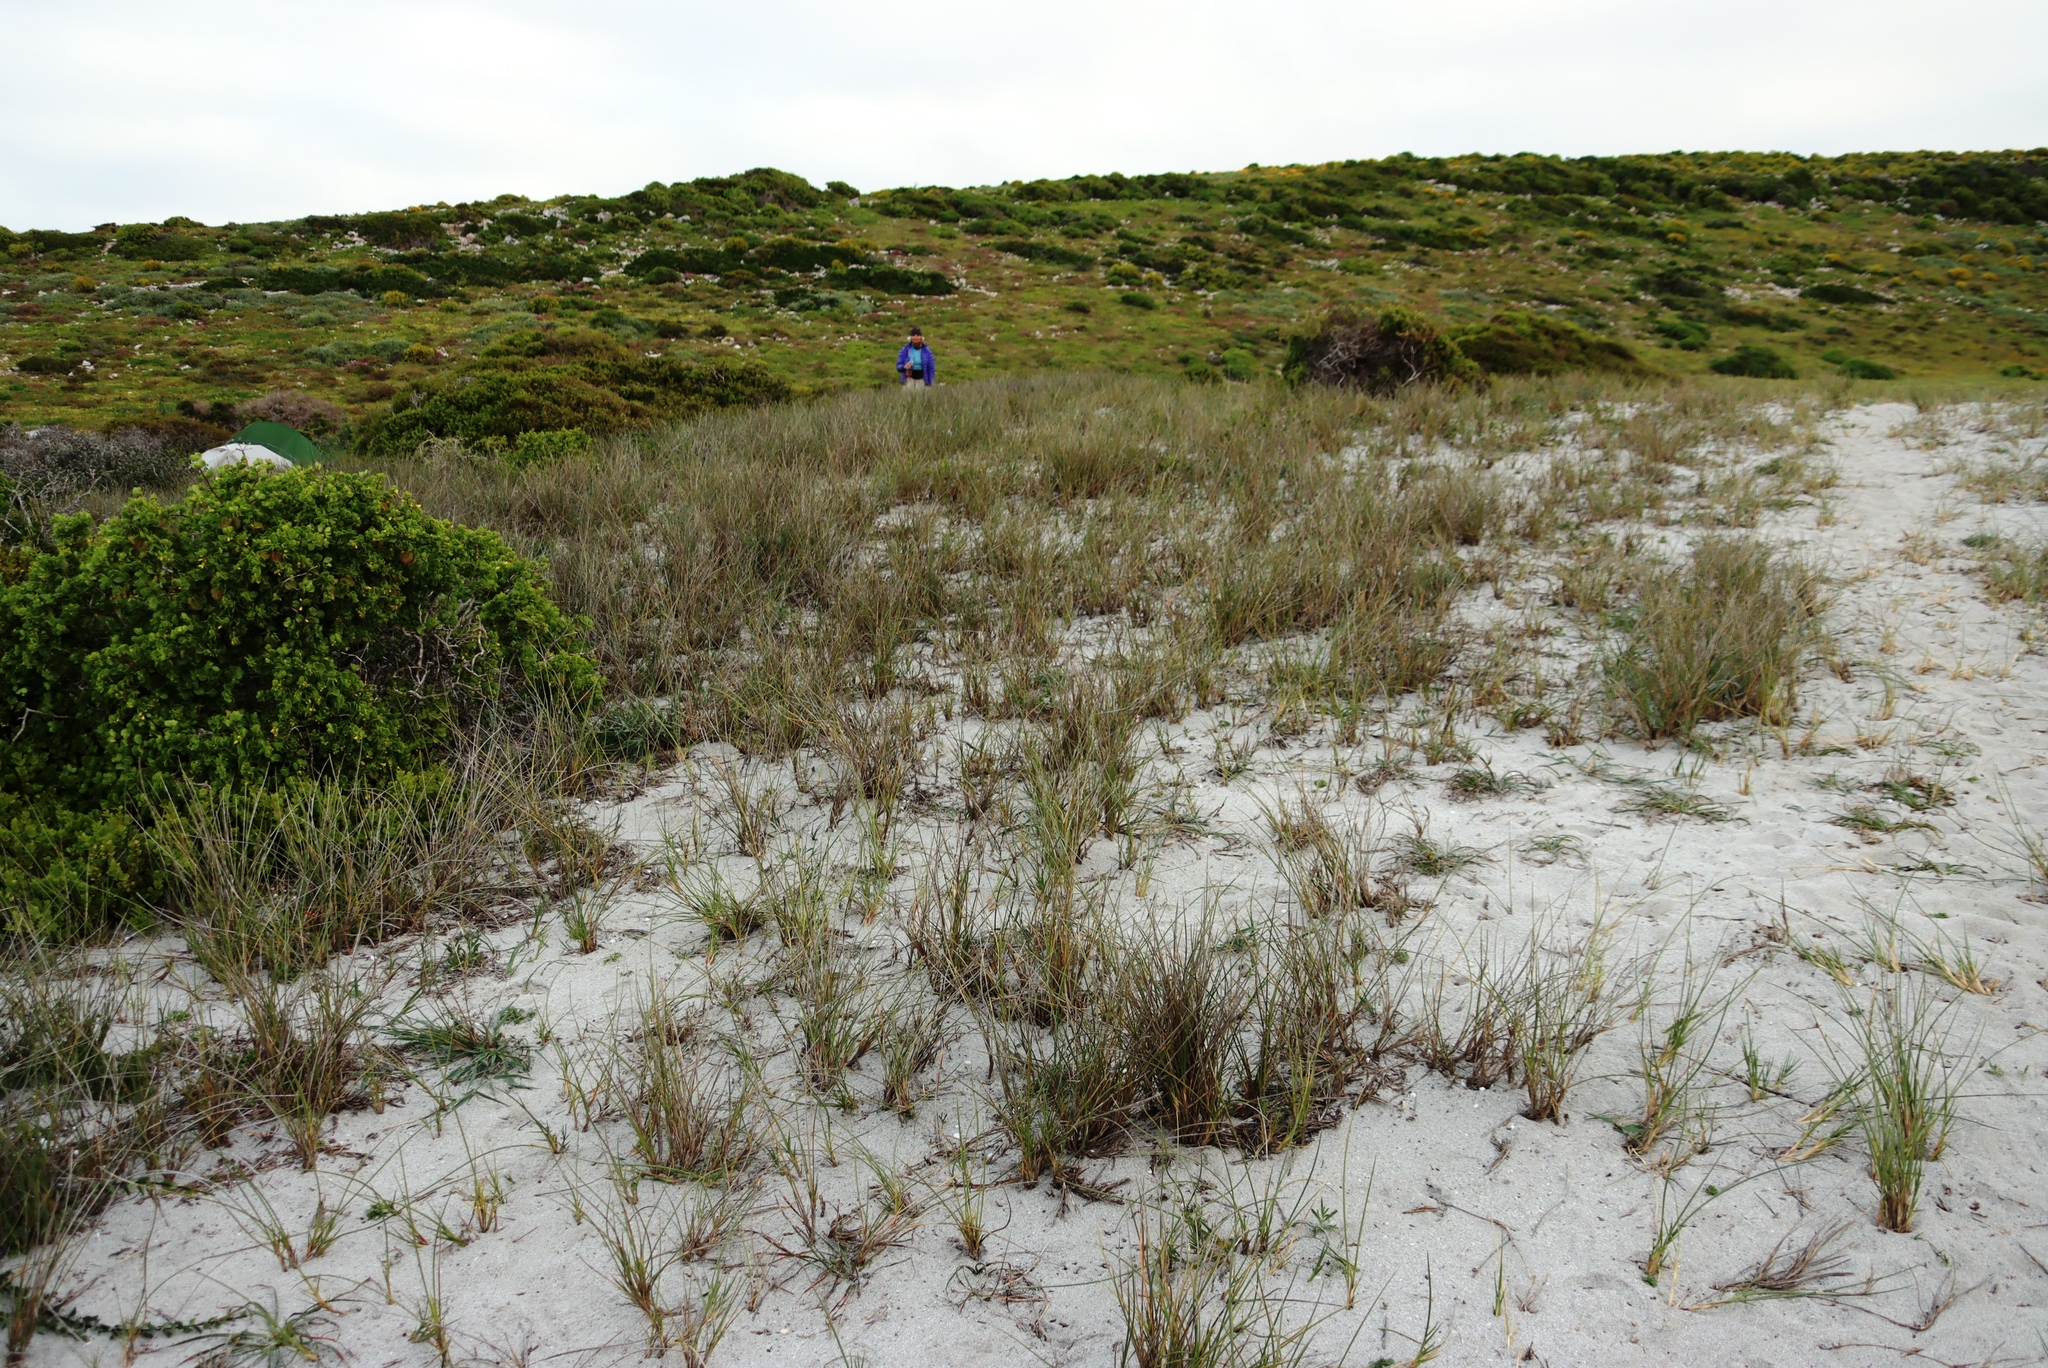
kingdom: Plantae
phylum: Tracheophyta
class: Liliopsida
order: Poales
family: Poaceae
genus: Thinopyrum
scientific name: Thinopyrum distichum
